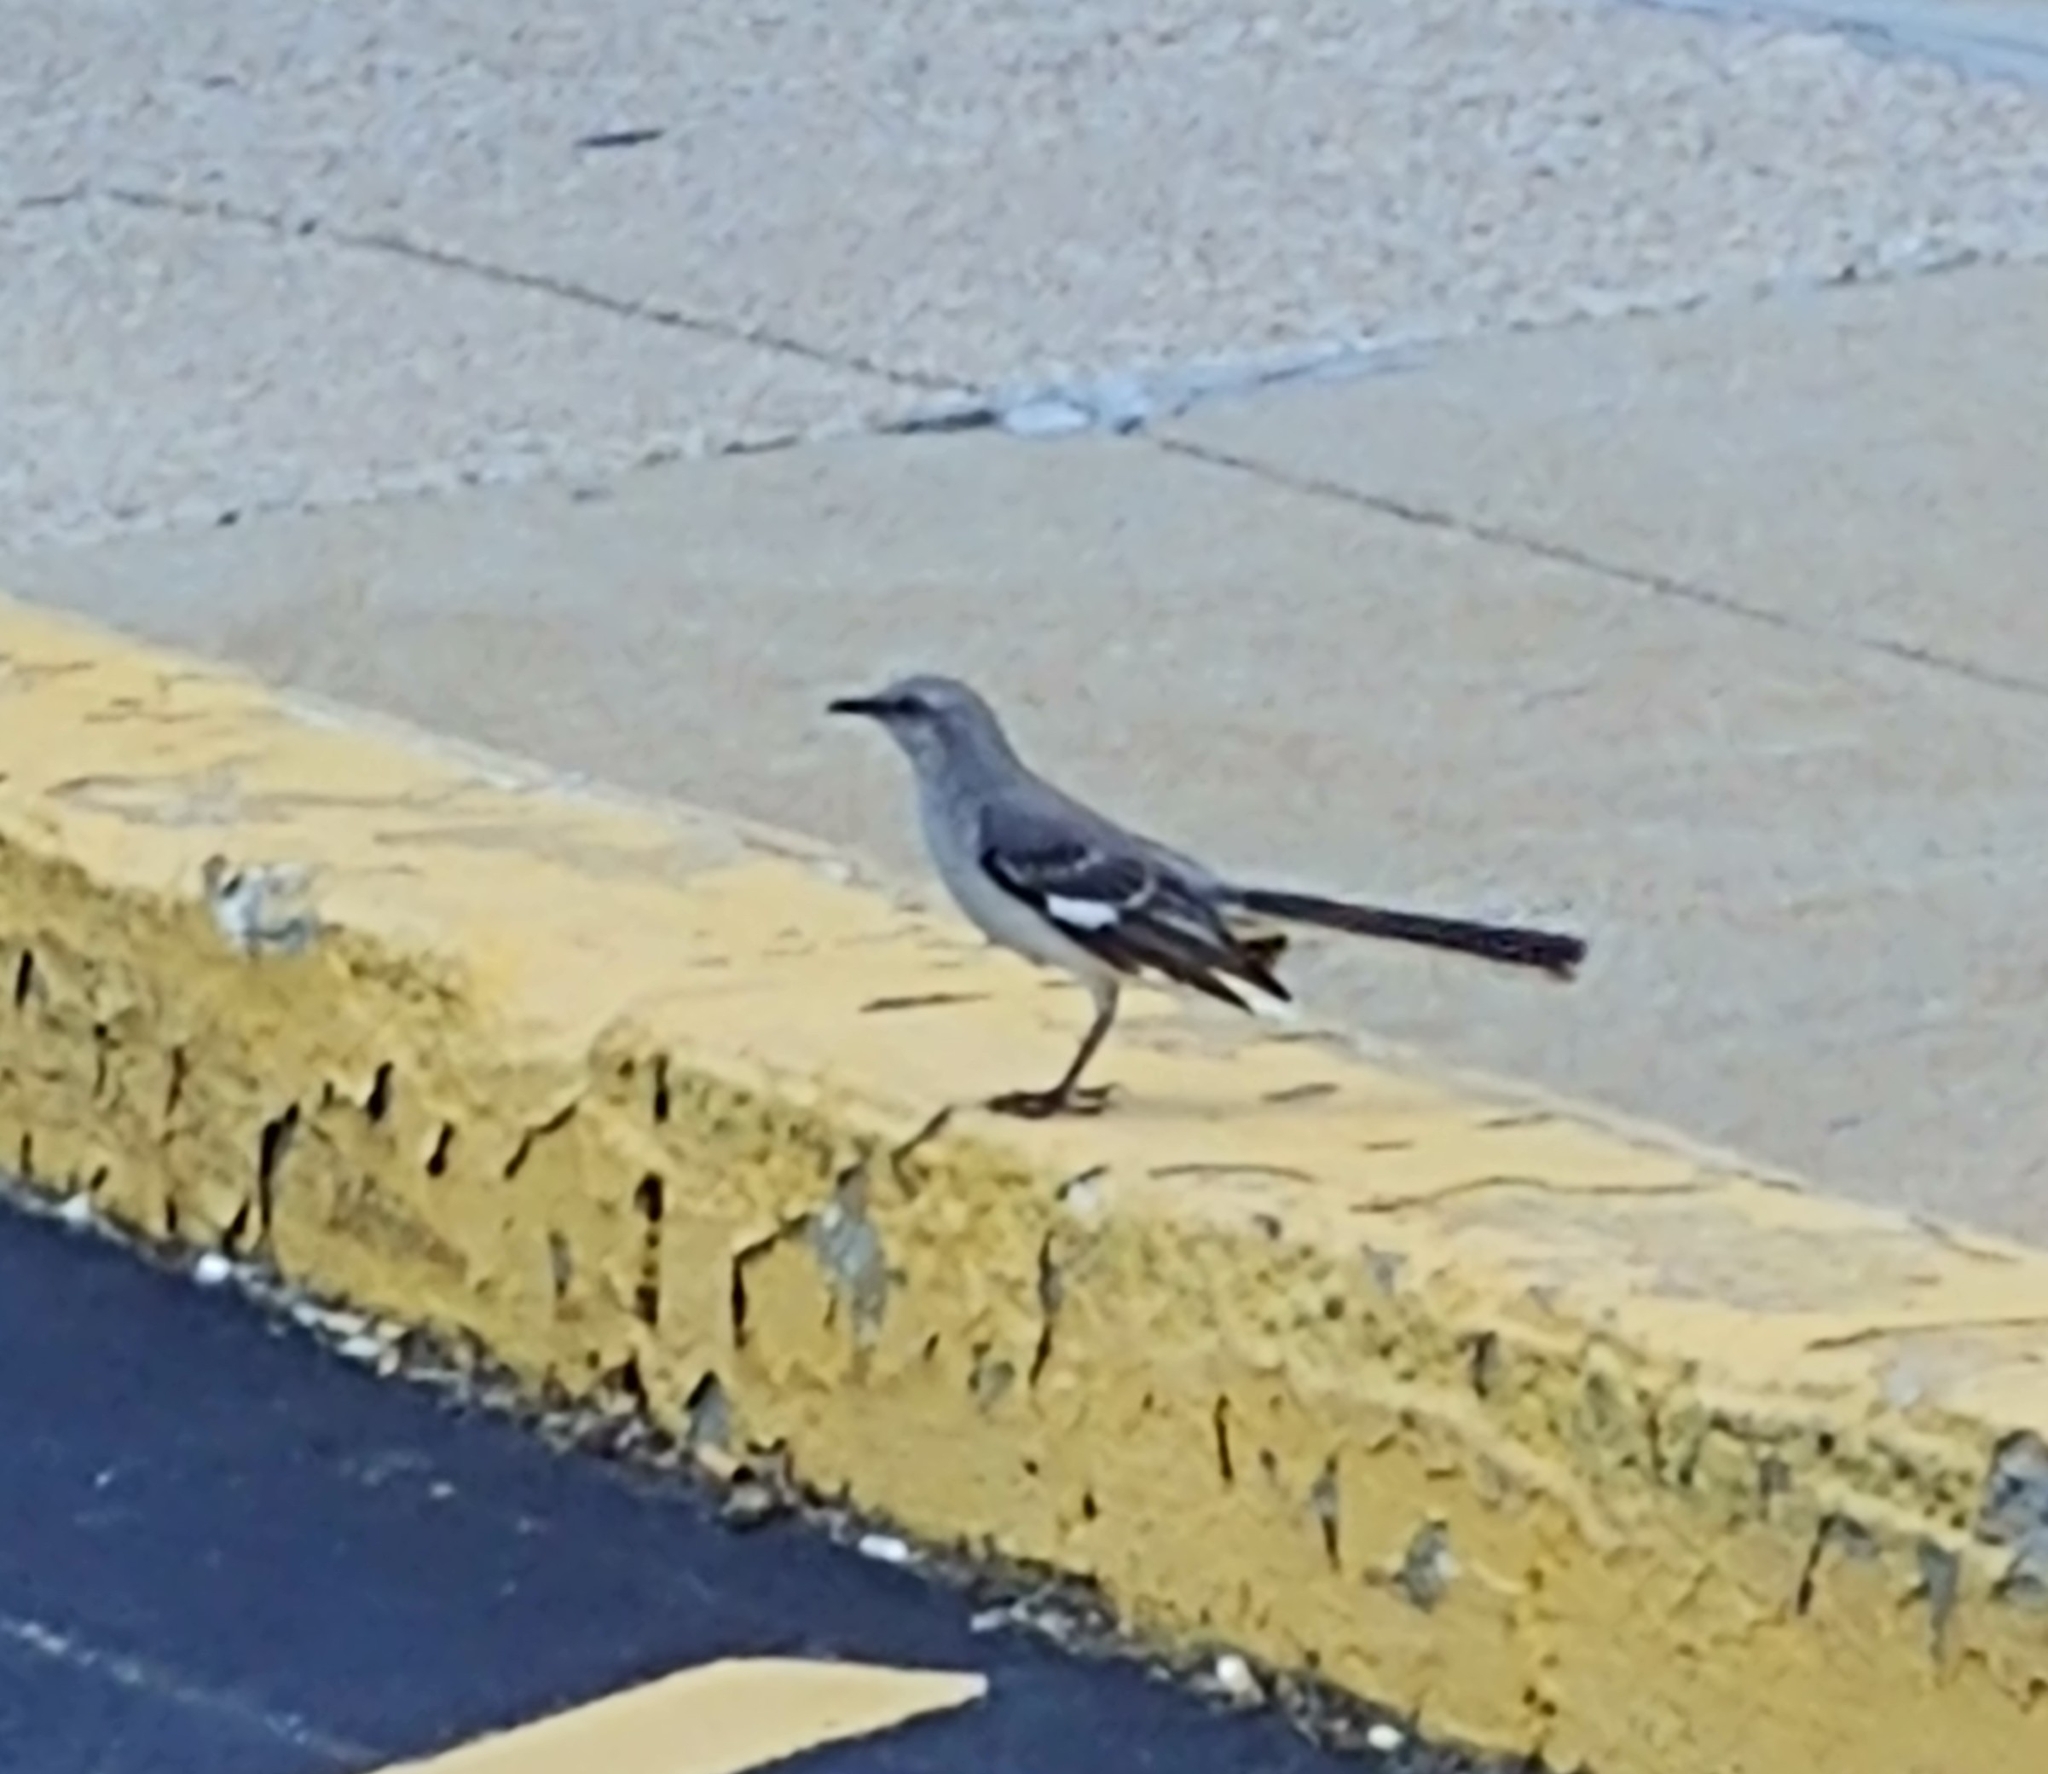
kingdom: Animalia
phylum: Chordata
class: Aves
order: Passeriformes
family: Mimidae
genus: Mimus
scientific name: Mimus polyglottos
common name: Northern mockingbird
